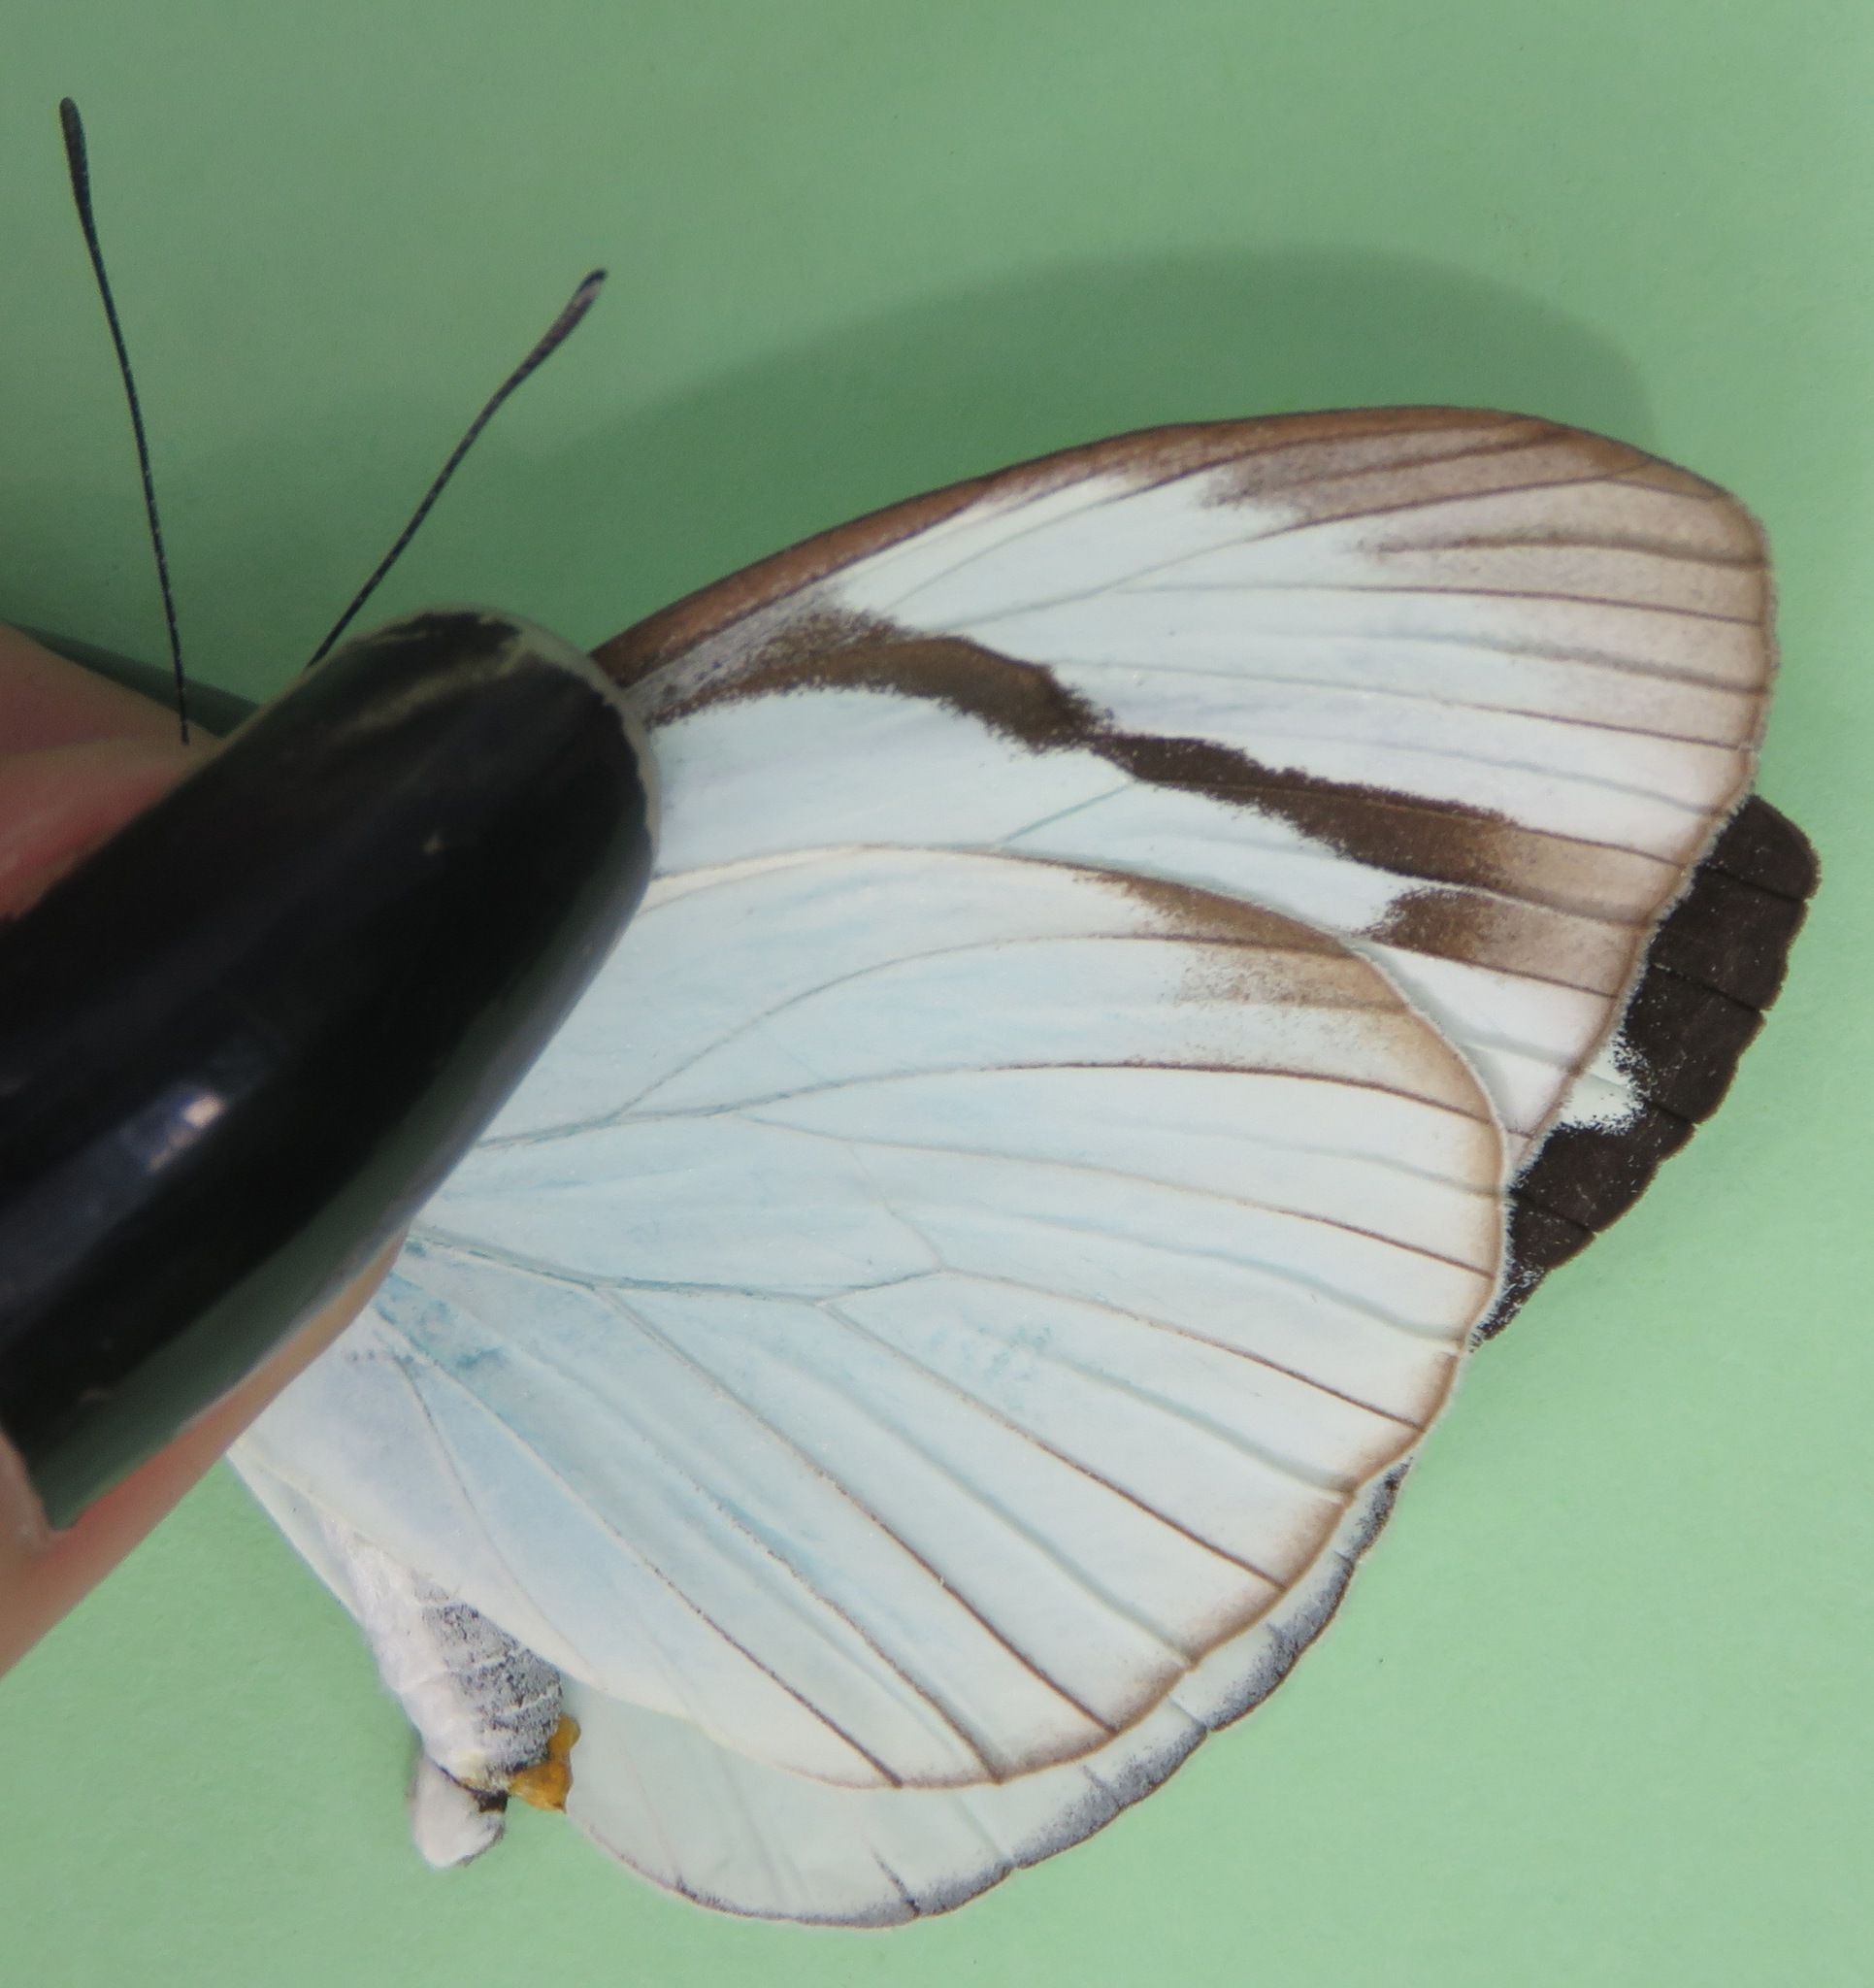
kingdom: Animalia
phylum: Arthropoda
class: Insecta
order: Lepidoptera
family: Pieridae
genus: Itaballia
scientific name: Itaballia demophile
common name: Cross-barred white
